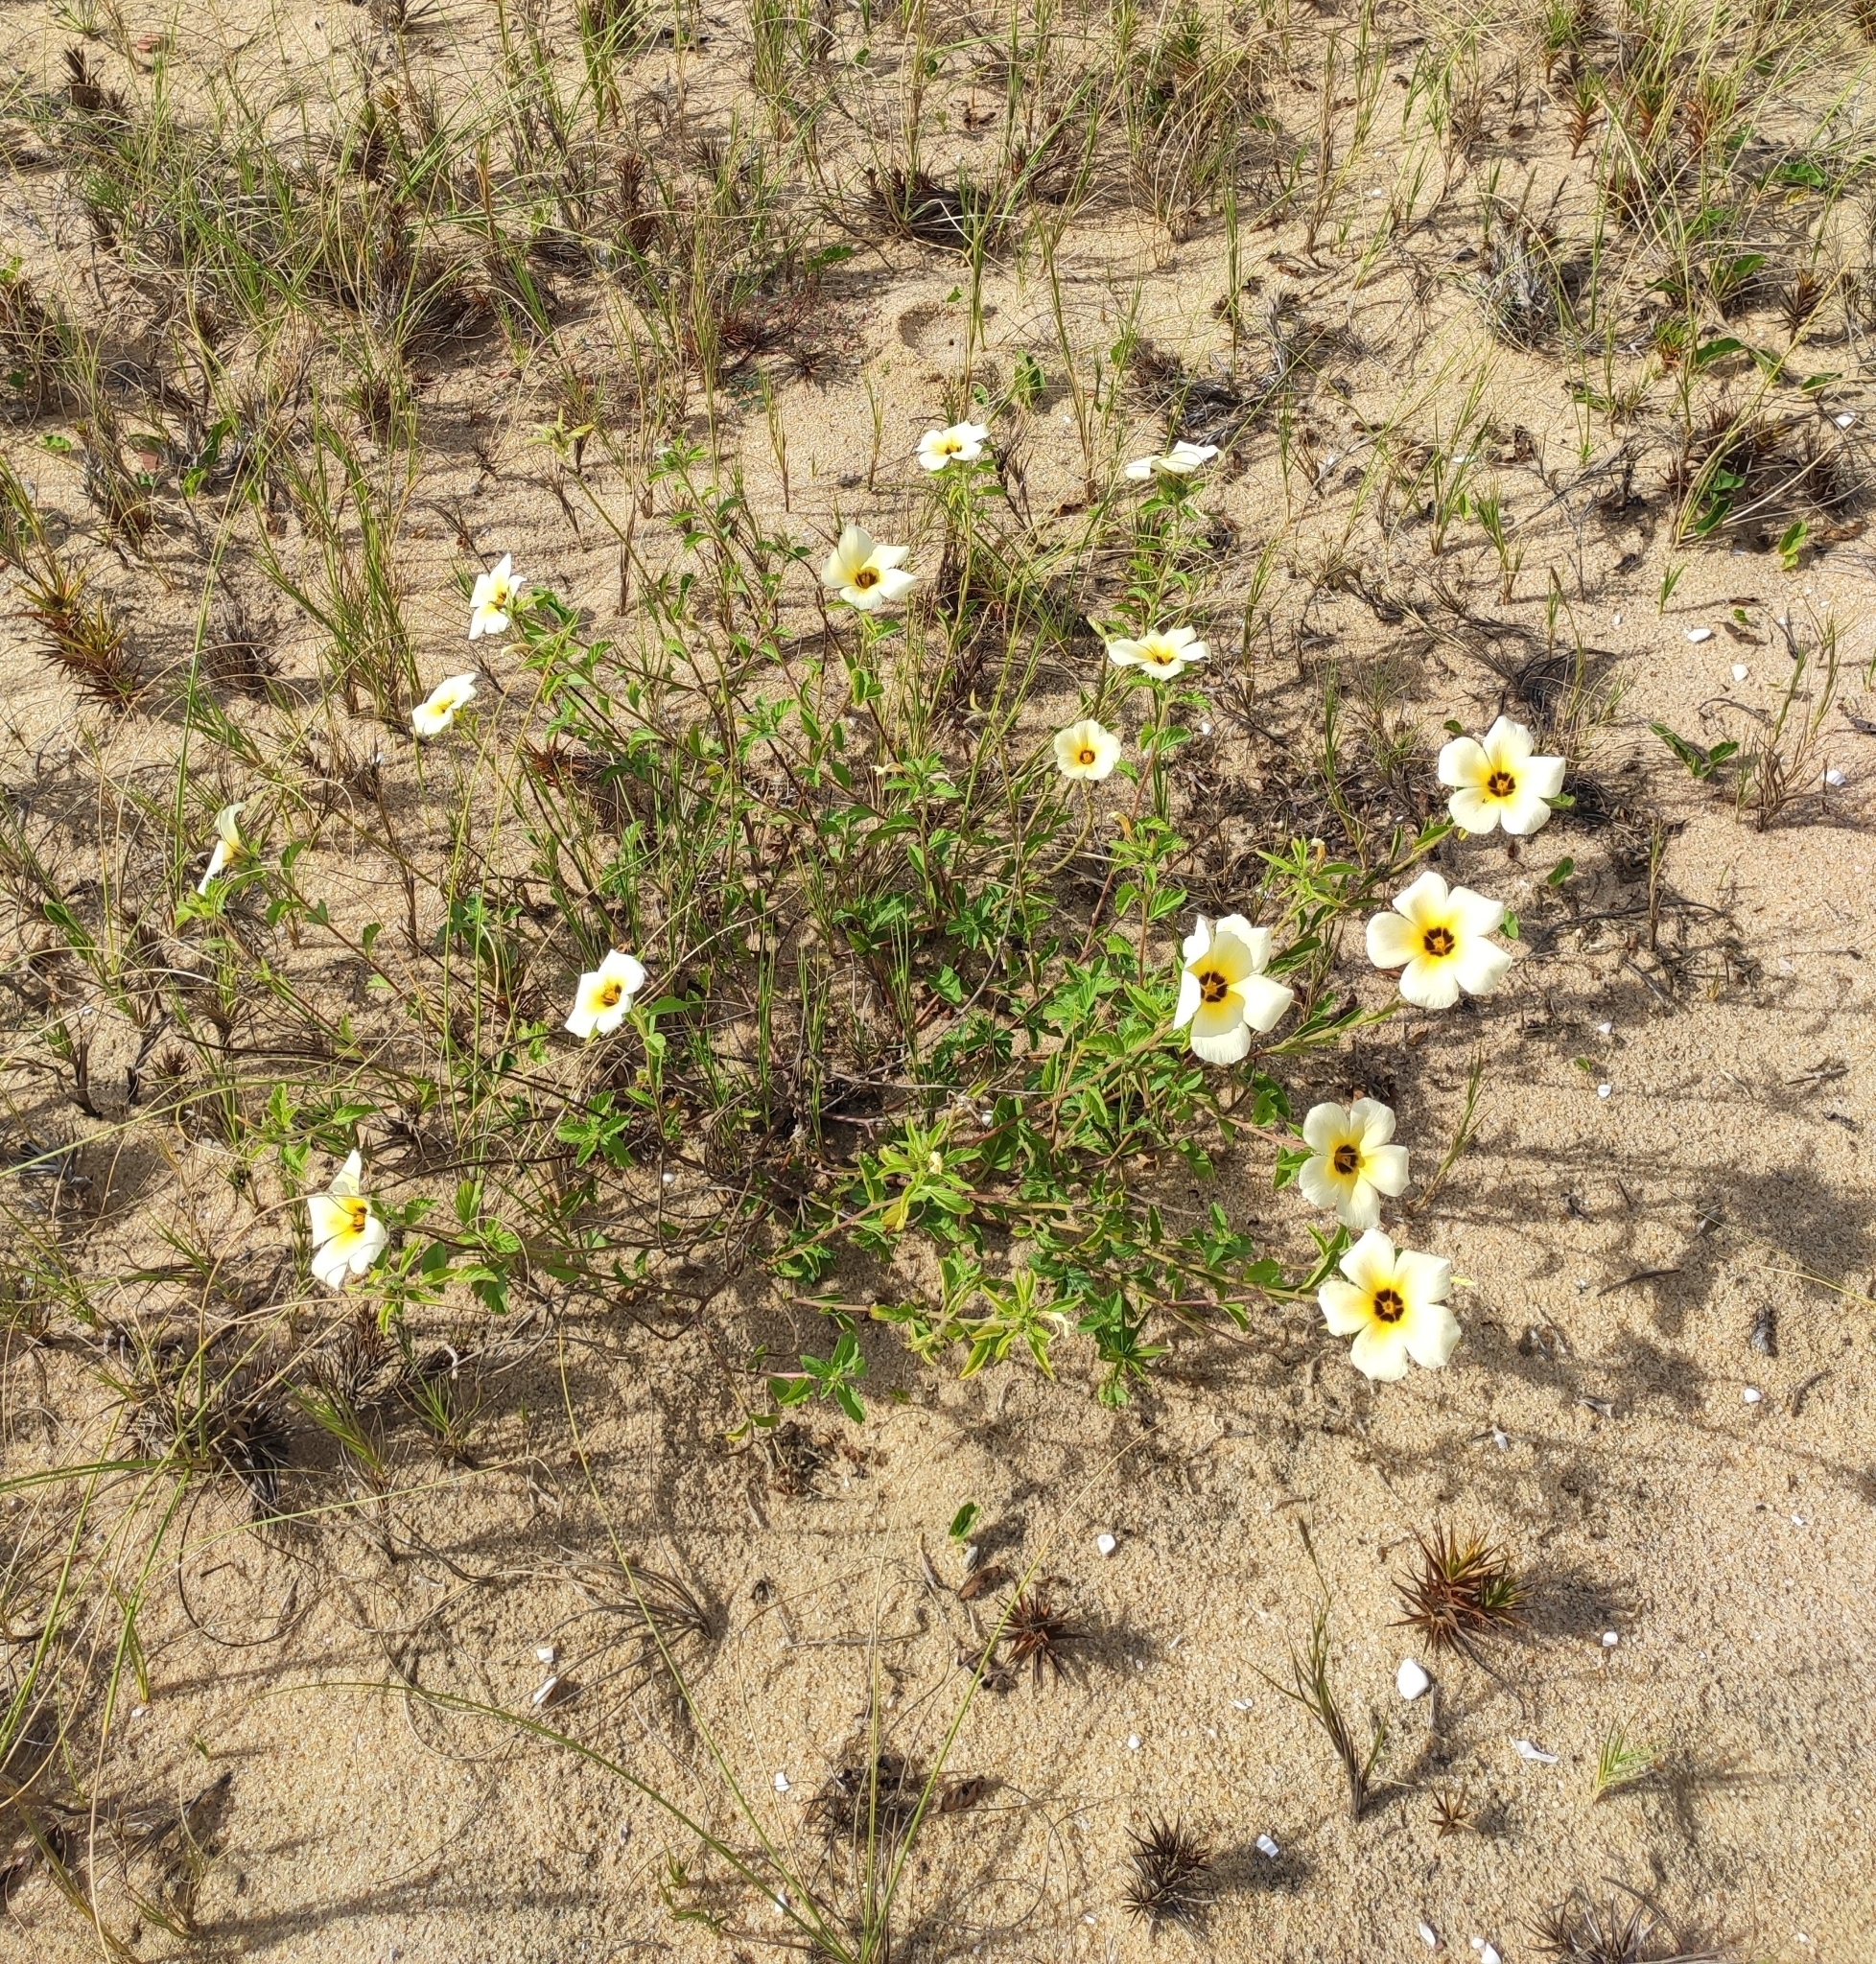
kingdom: Plantae
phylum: Tracheophyta
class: Magnoliopsida
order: Malpighiales
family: Turneraceae
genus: Turnera
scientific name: Turnera subulata
